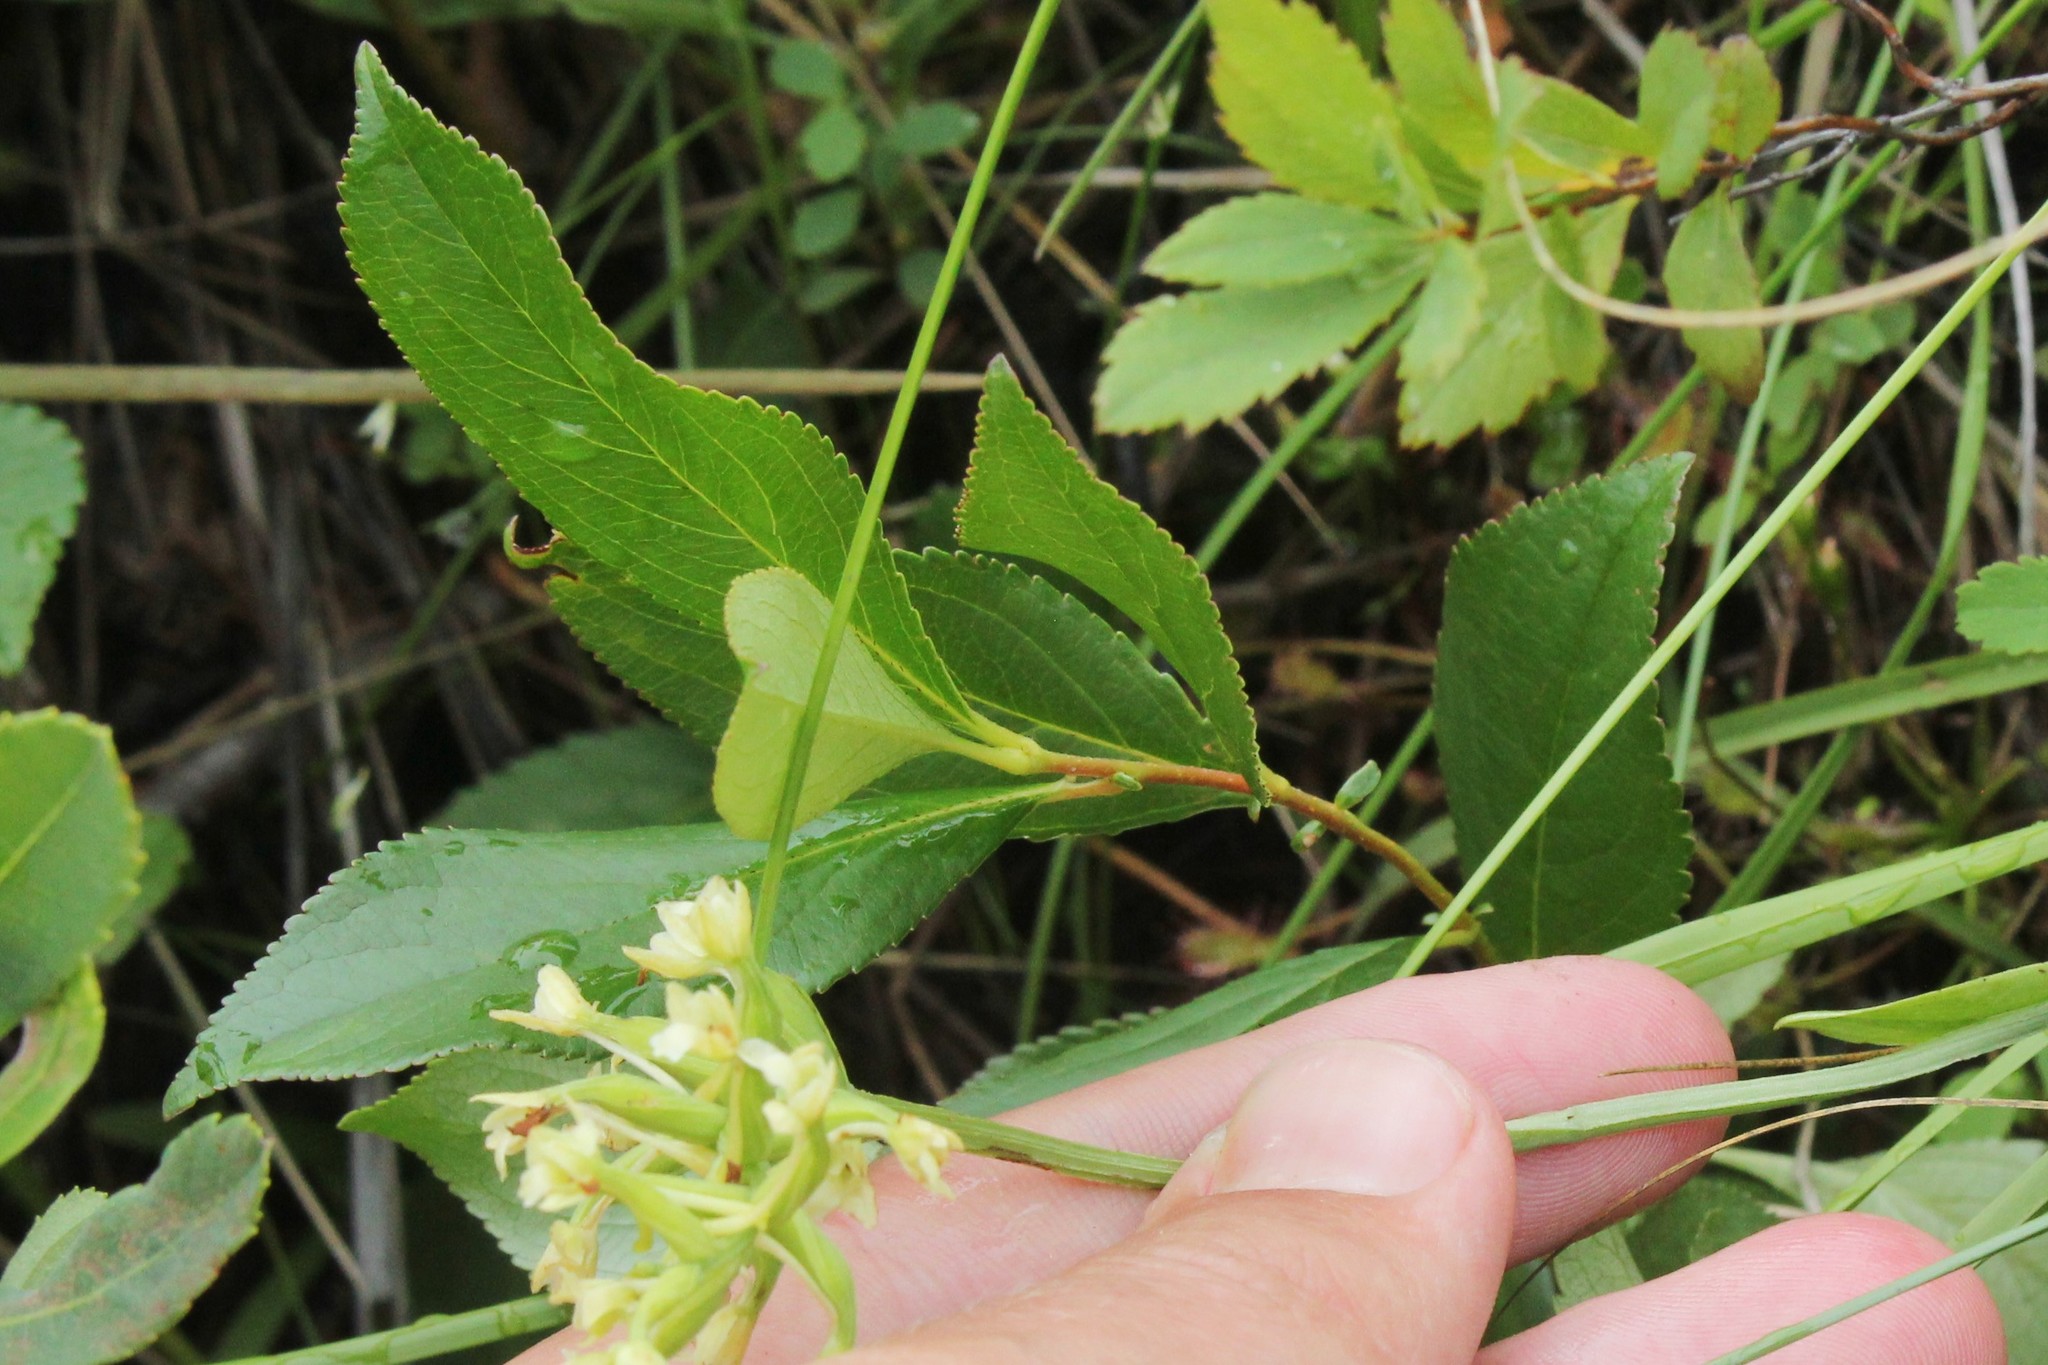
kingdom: Plantae
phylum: Tracheophyta
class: Magnoliopsida
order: Rosales
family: Rosaceae
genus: Aronia
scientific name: Aronia melanocarpa
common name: Black chokeberry
